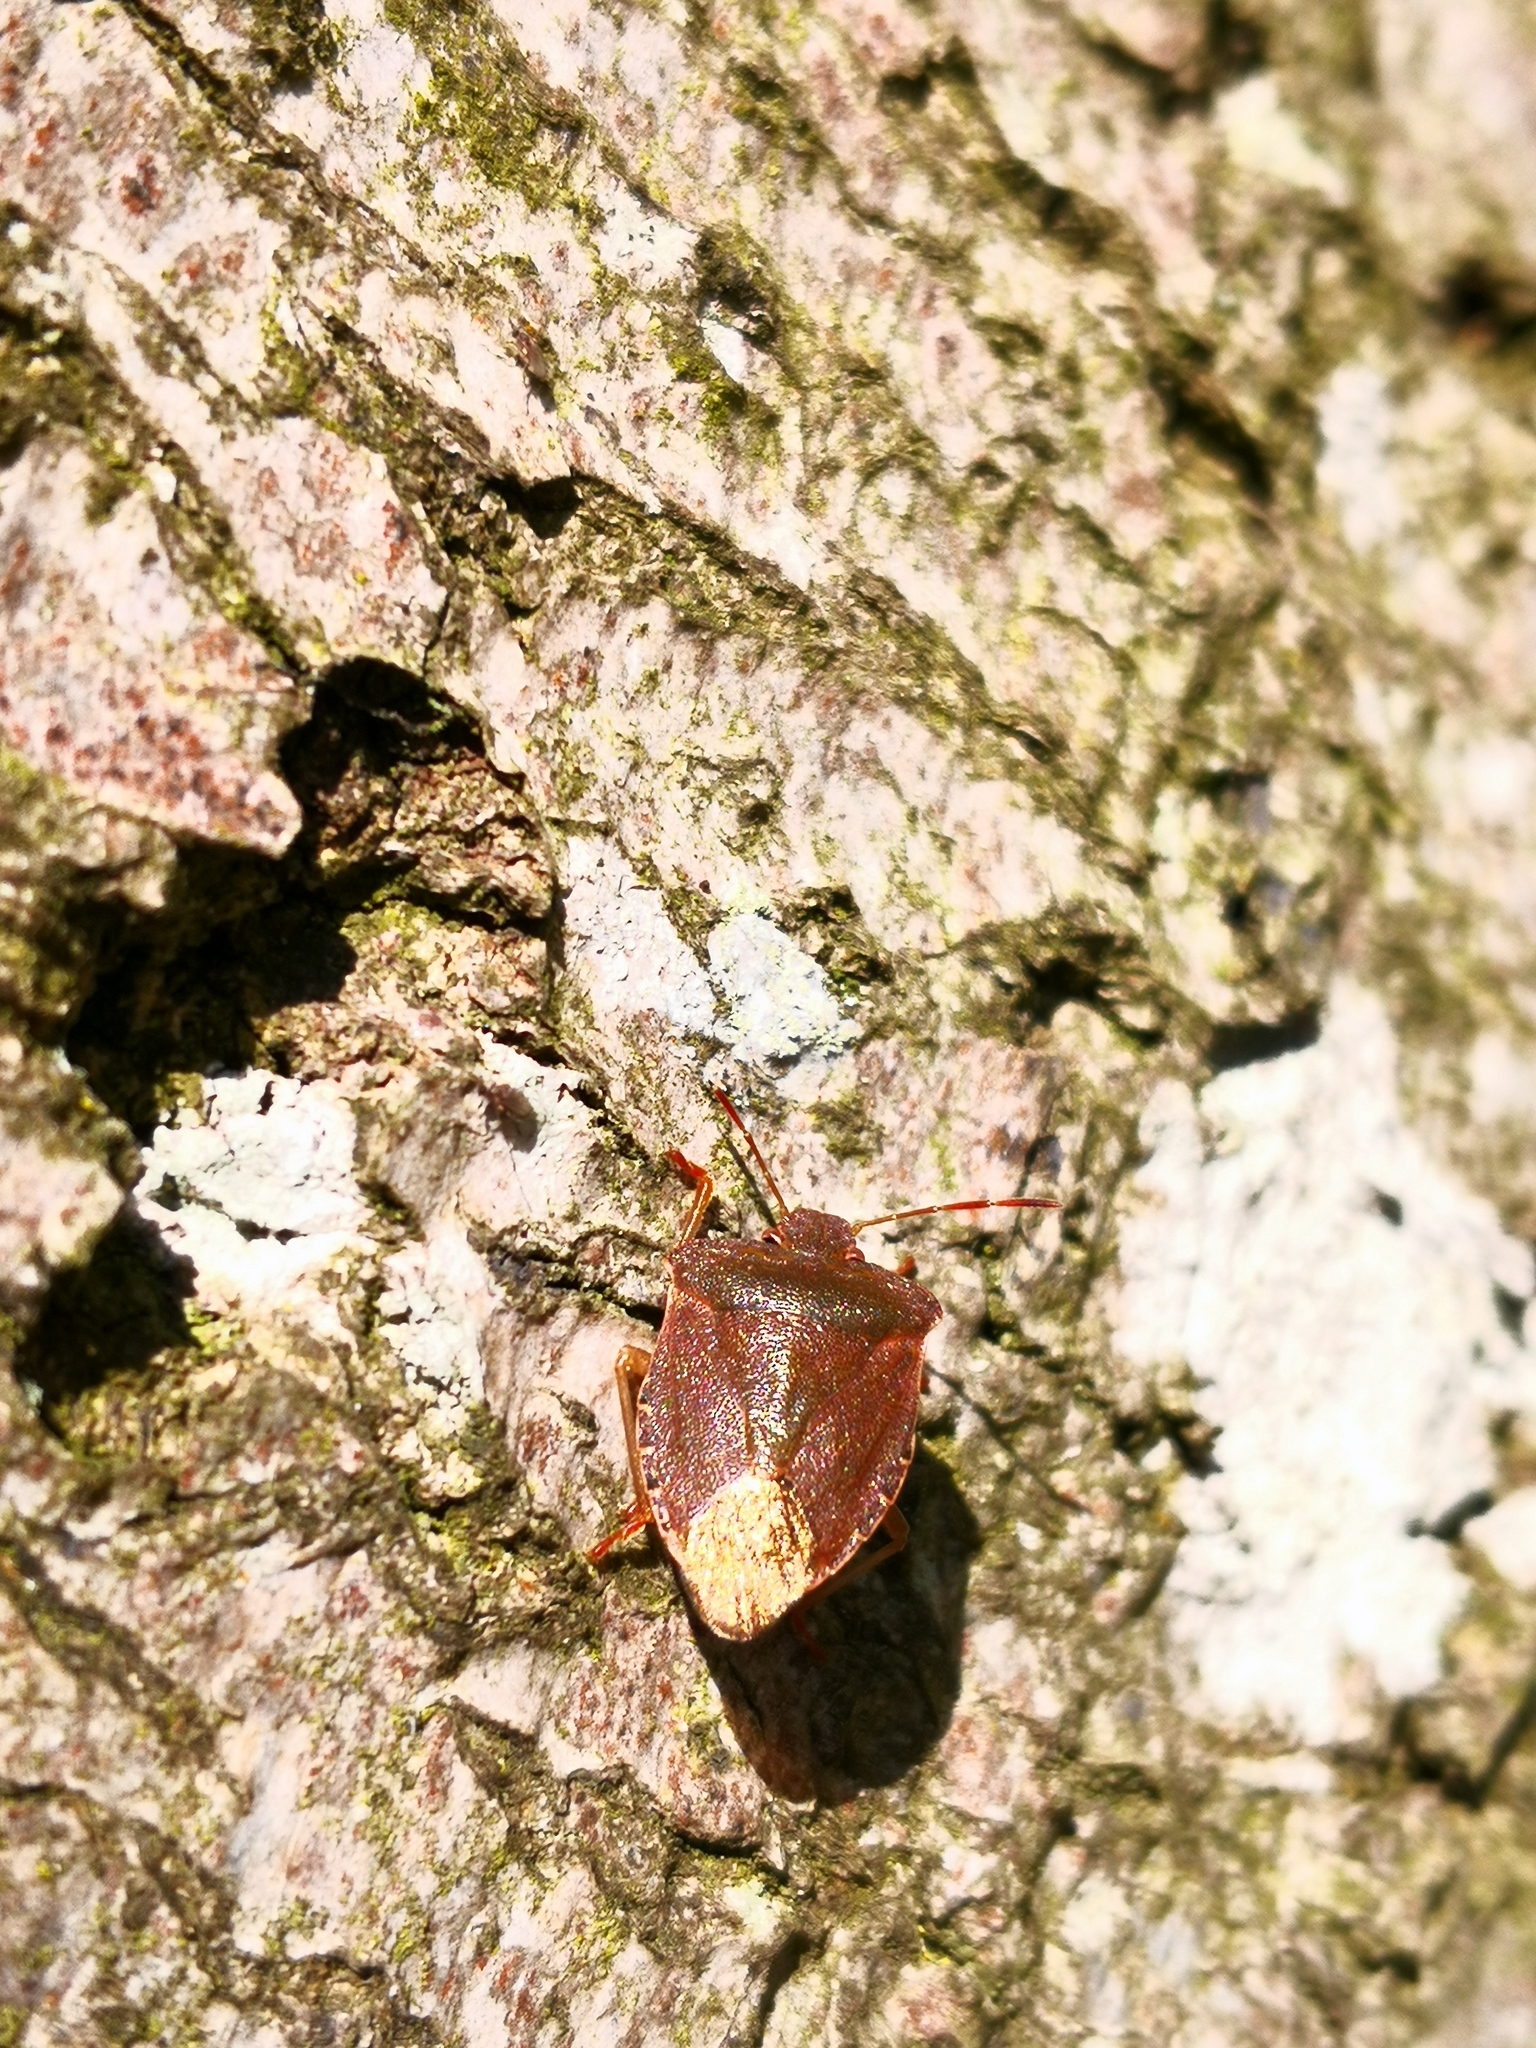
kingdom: Animalia
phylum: Arthropoda
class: Insecta
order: Hemiptera
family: Pentatomidae
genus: Palomena
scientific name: Palomena prasina
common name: Green shieldbug
